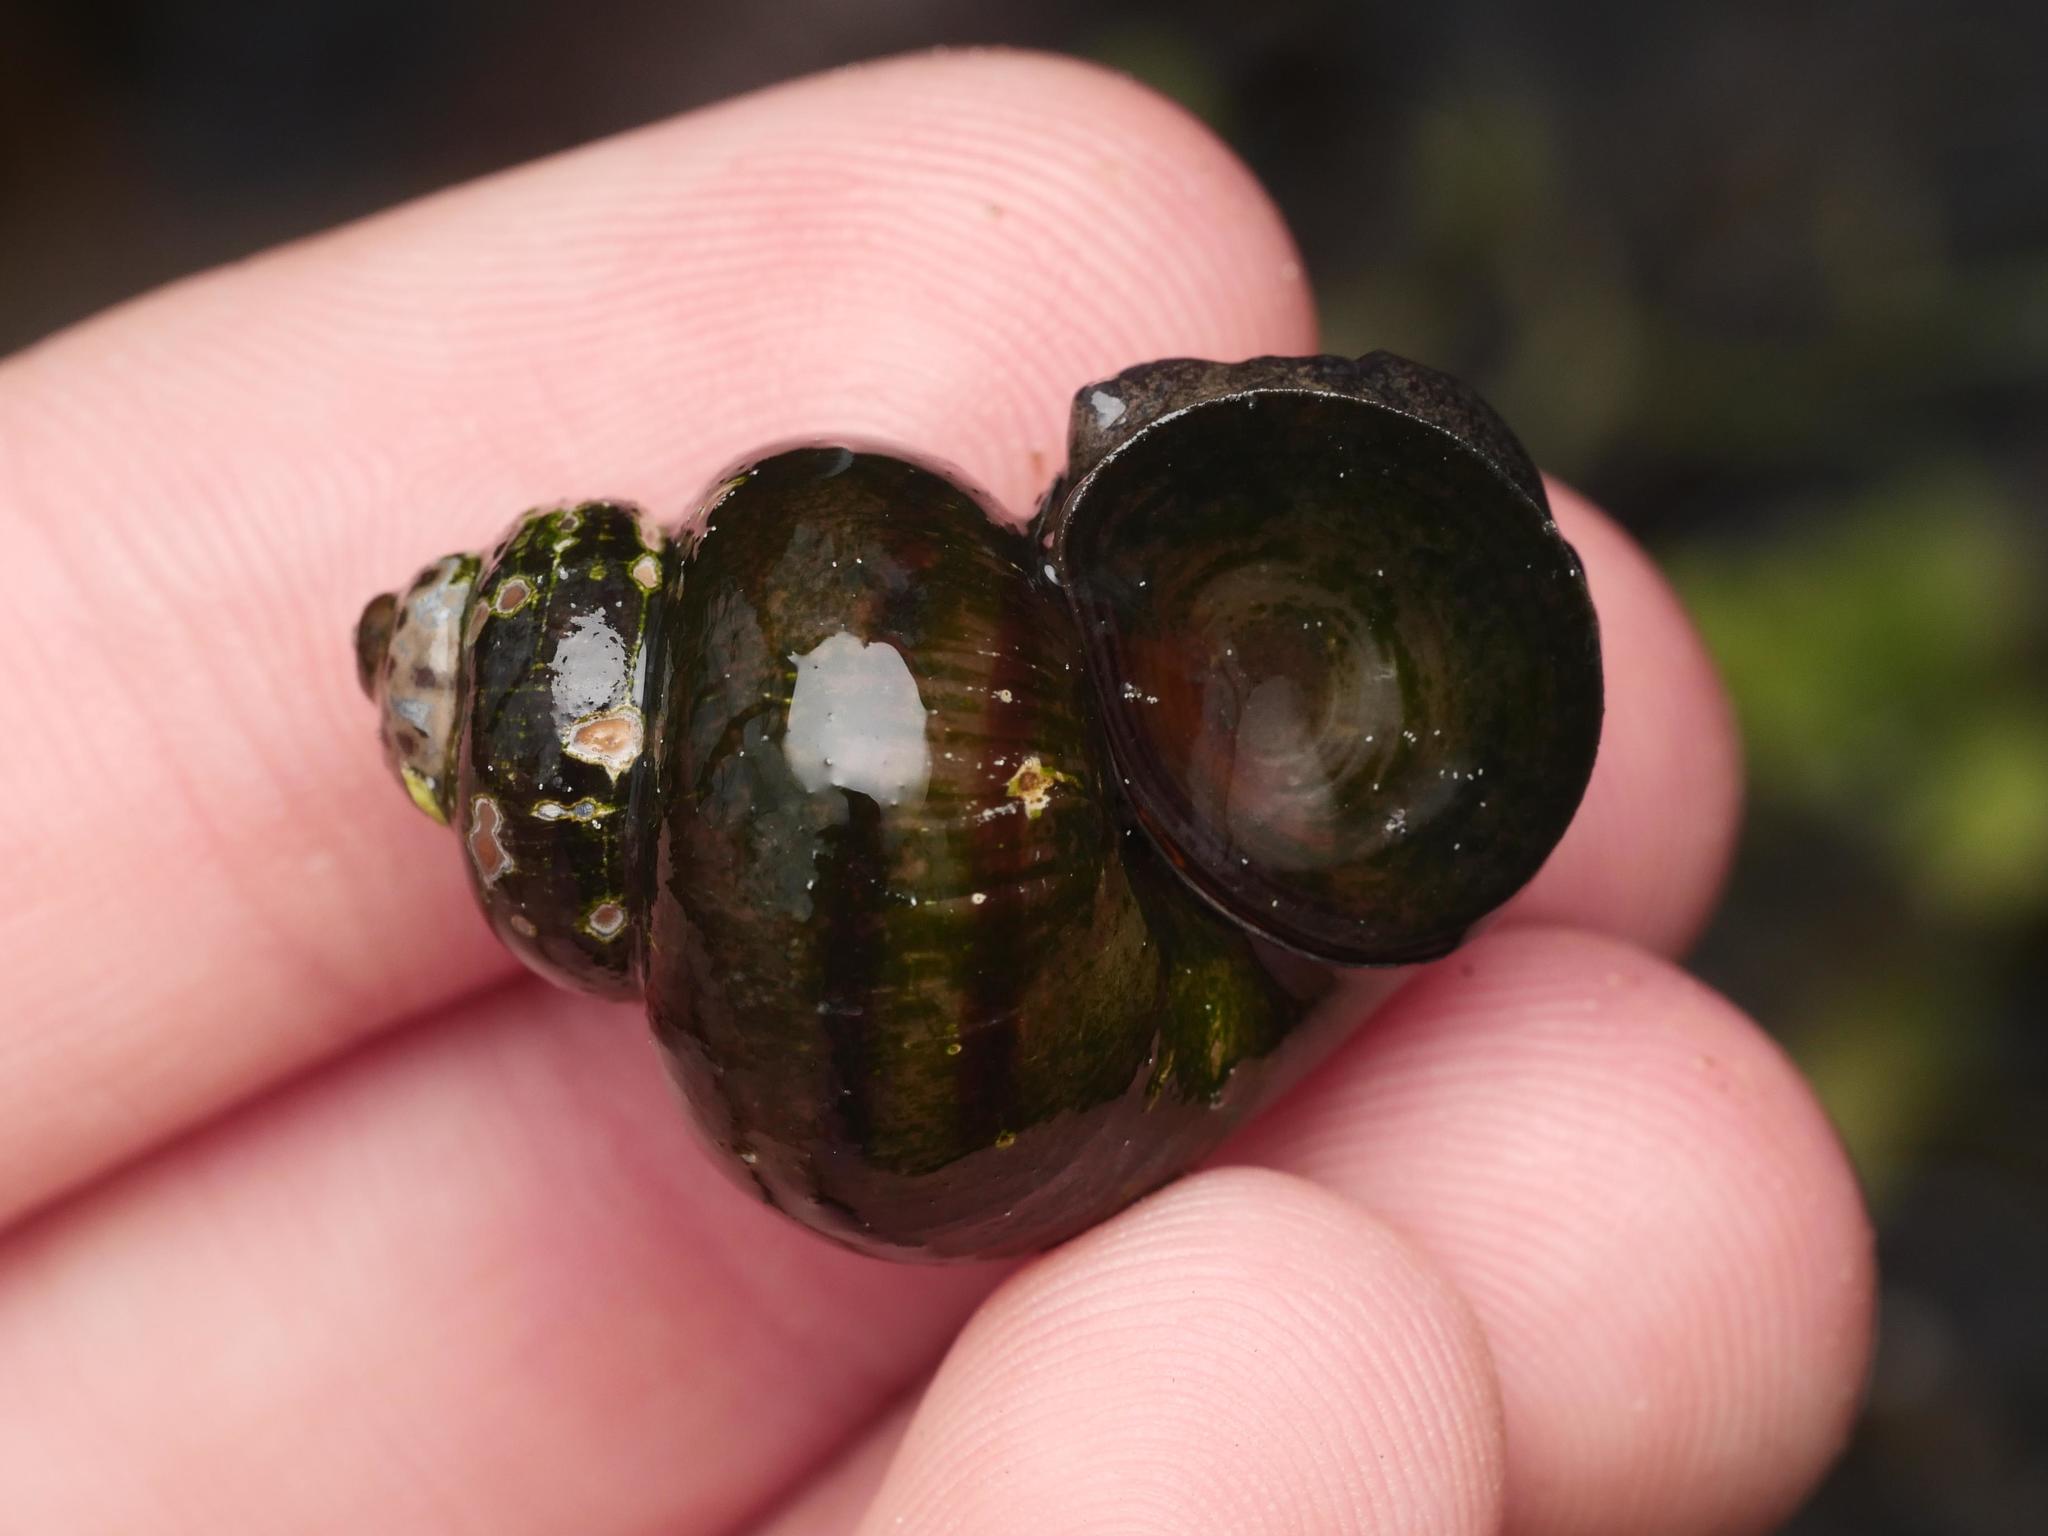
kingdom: Animalia
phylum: Mollusca
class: Gastropoda
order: Architaenioglossa
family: Viviparidae
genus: Viviparus
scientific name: Viviparus contectus
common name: Lister's river snail
